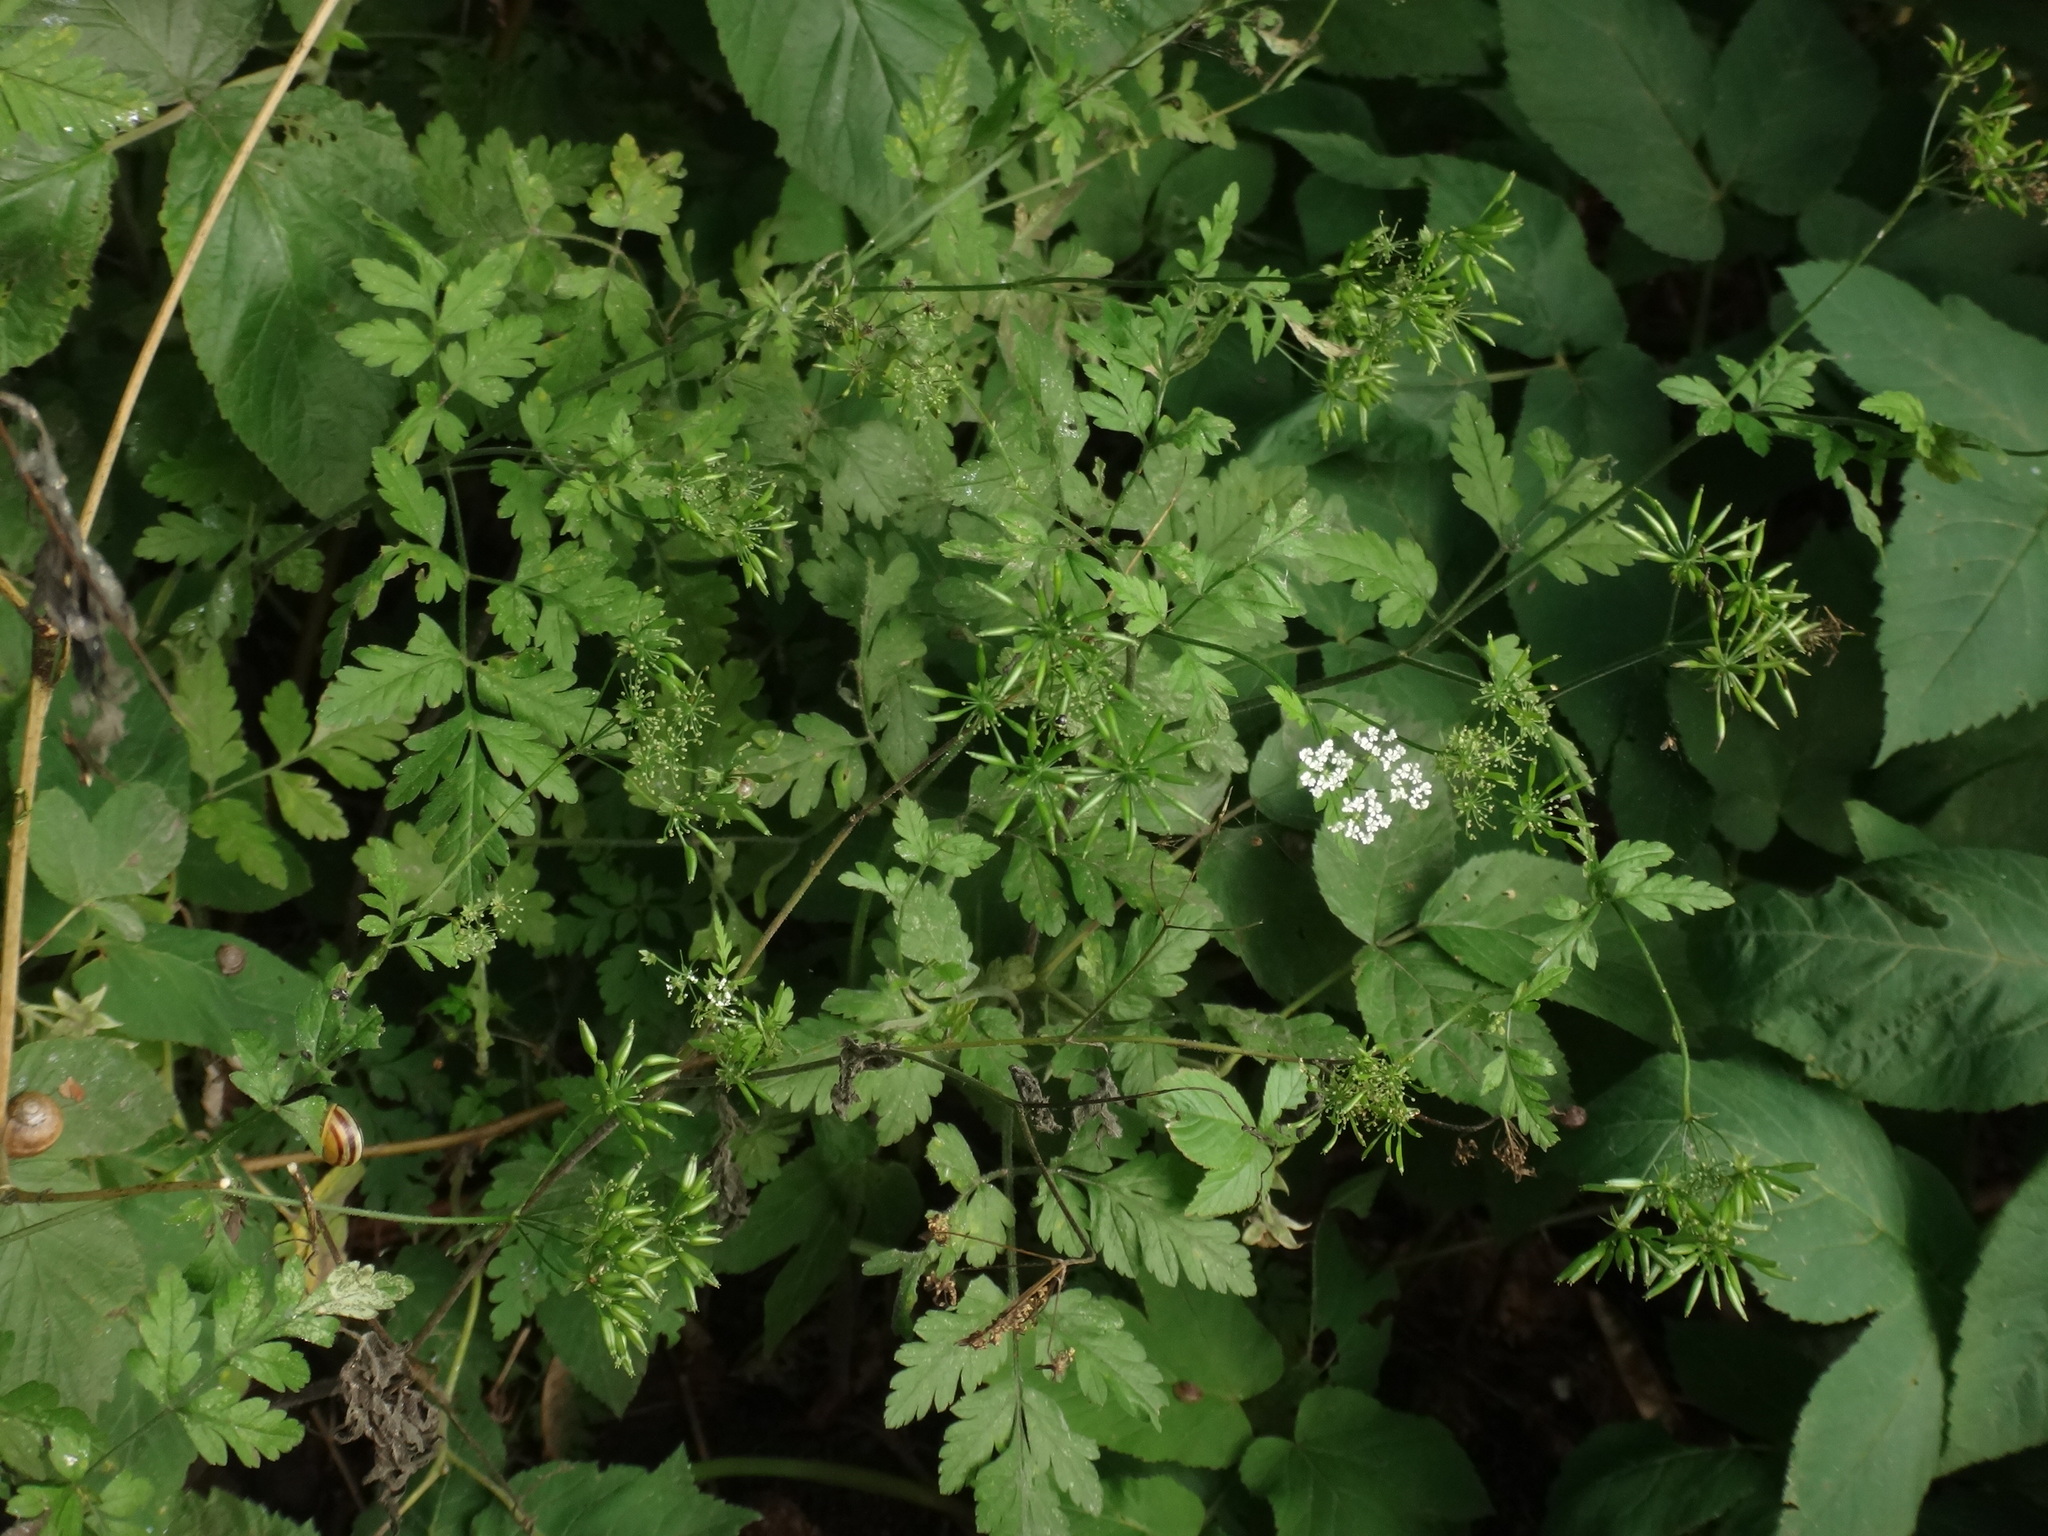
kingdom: Plantae
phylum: Tracheophyta
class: Magnoliopsida
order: Apiales
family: Apiaceae
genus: Chaerophyllum
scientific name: Chaerophyllum temulum
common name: Rough chervil
